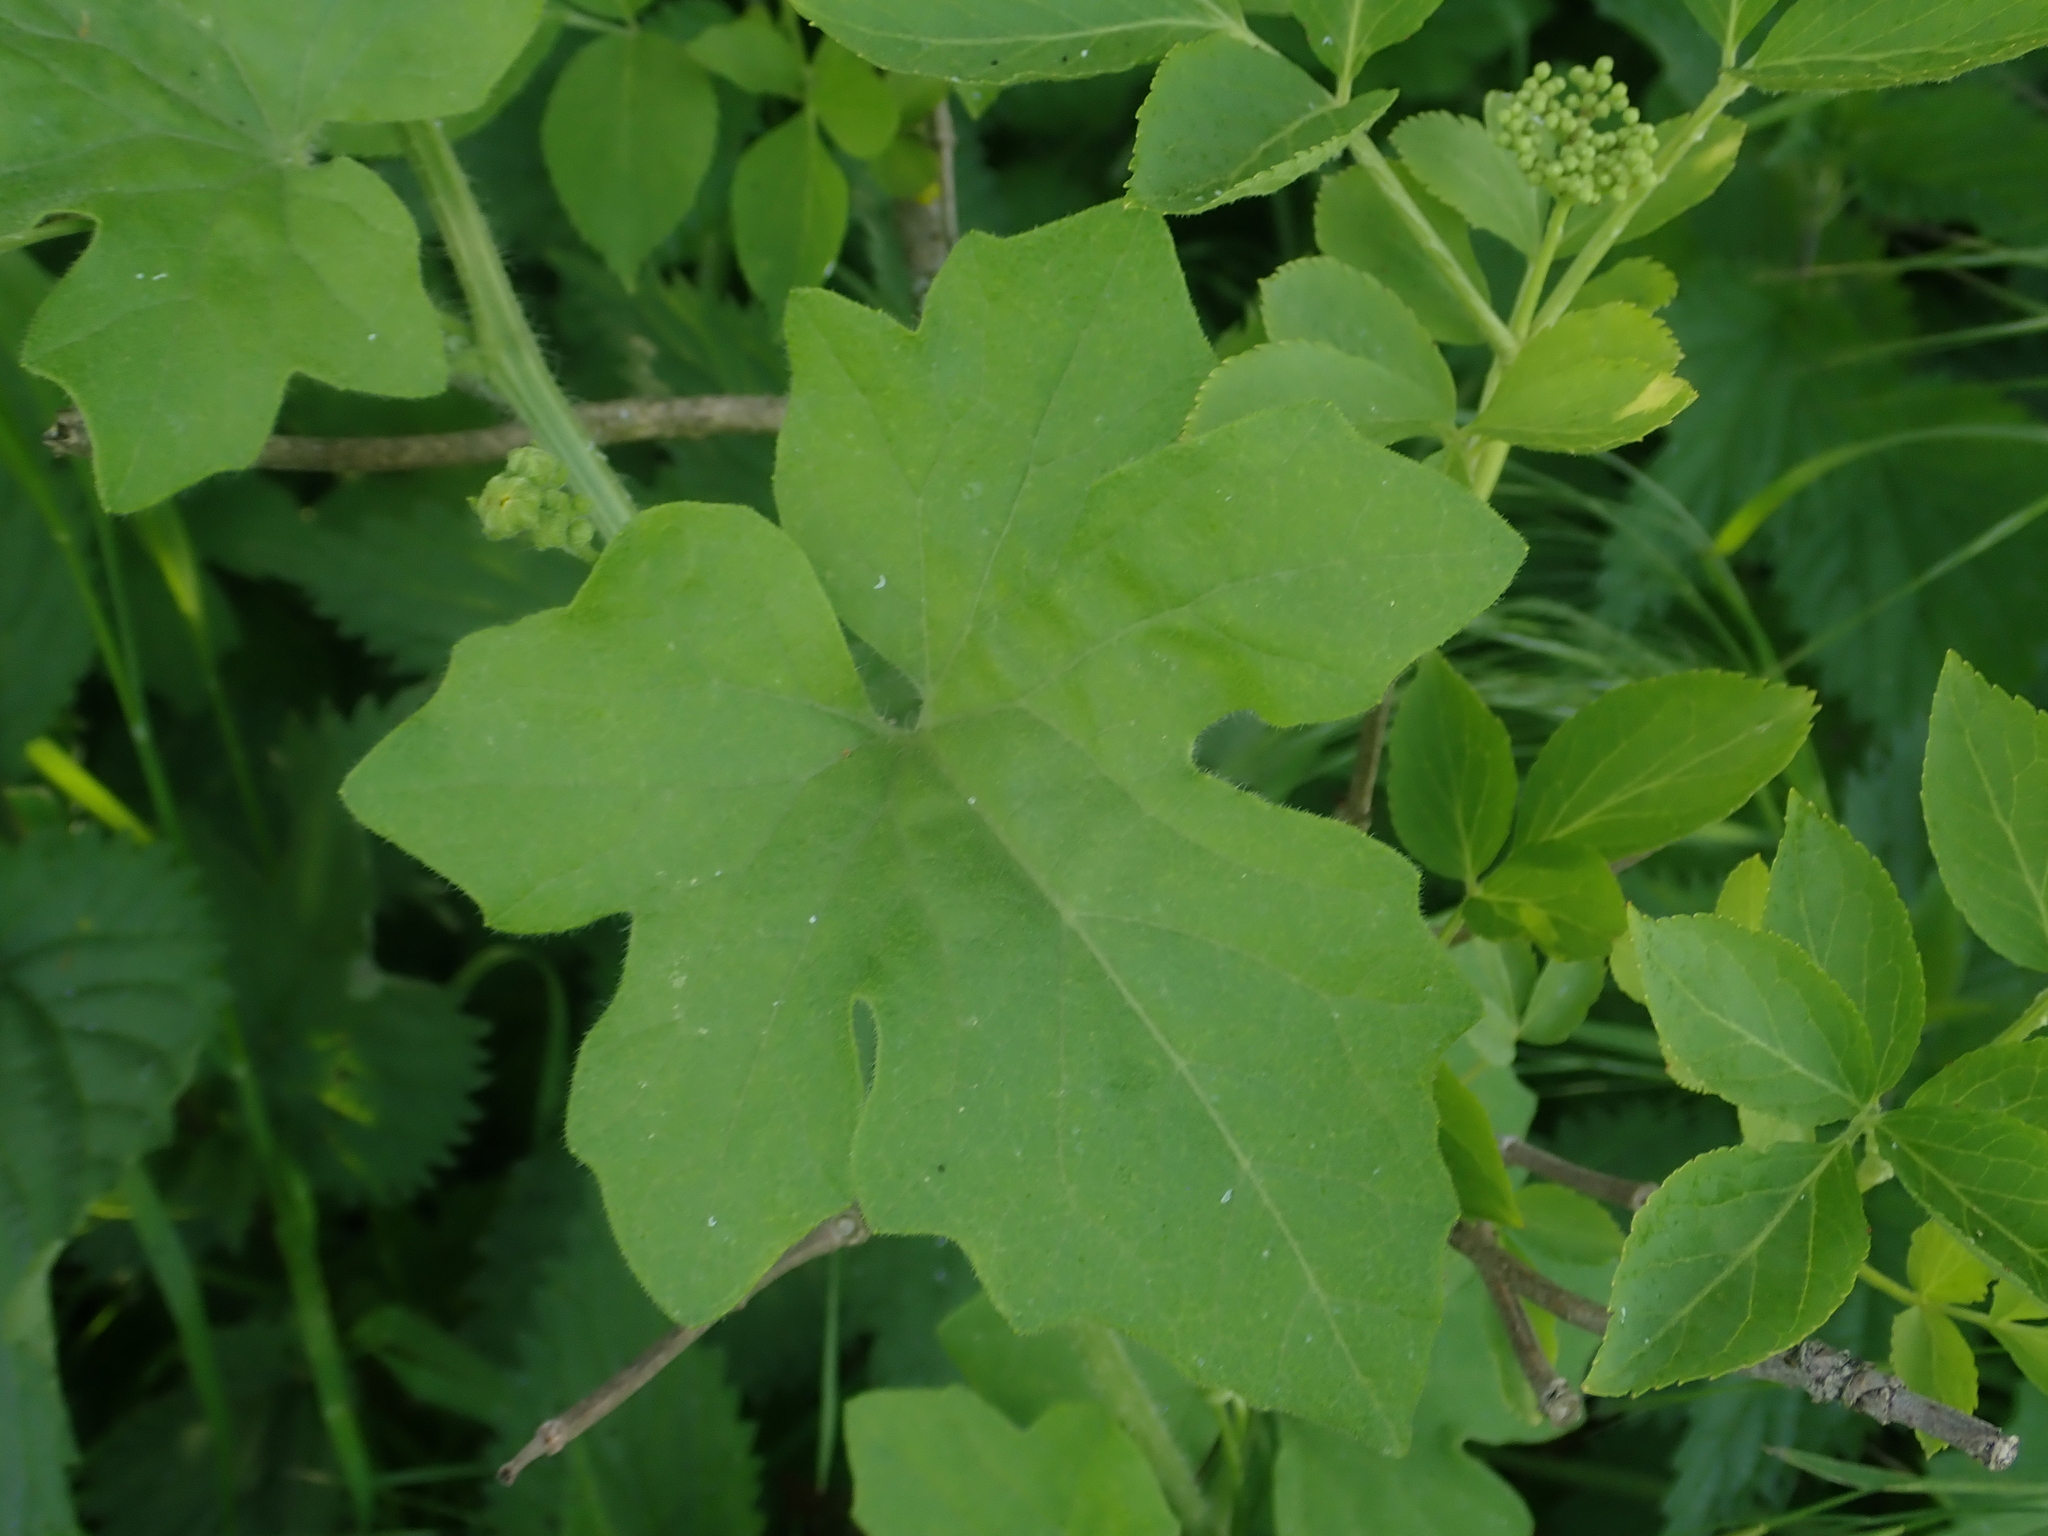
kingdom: Plantae
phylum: Tracheophyta
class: Magnoliopsida
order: Cucurbitales
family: Cucurbitaceae
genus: Bryonia
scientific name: Bryonia cretica
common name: Cretan bryony
